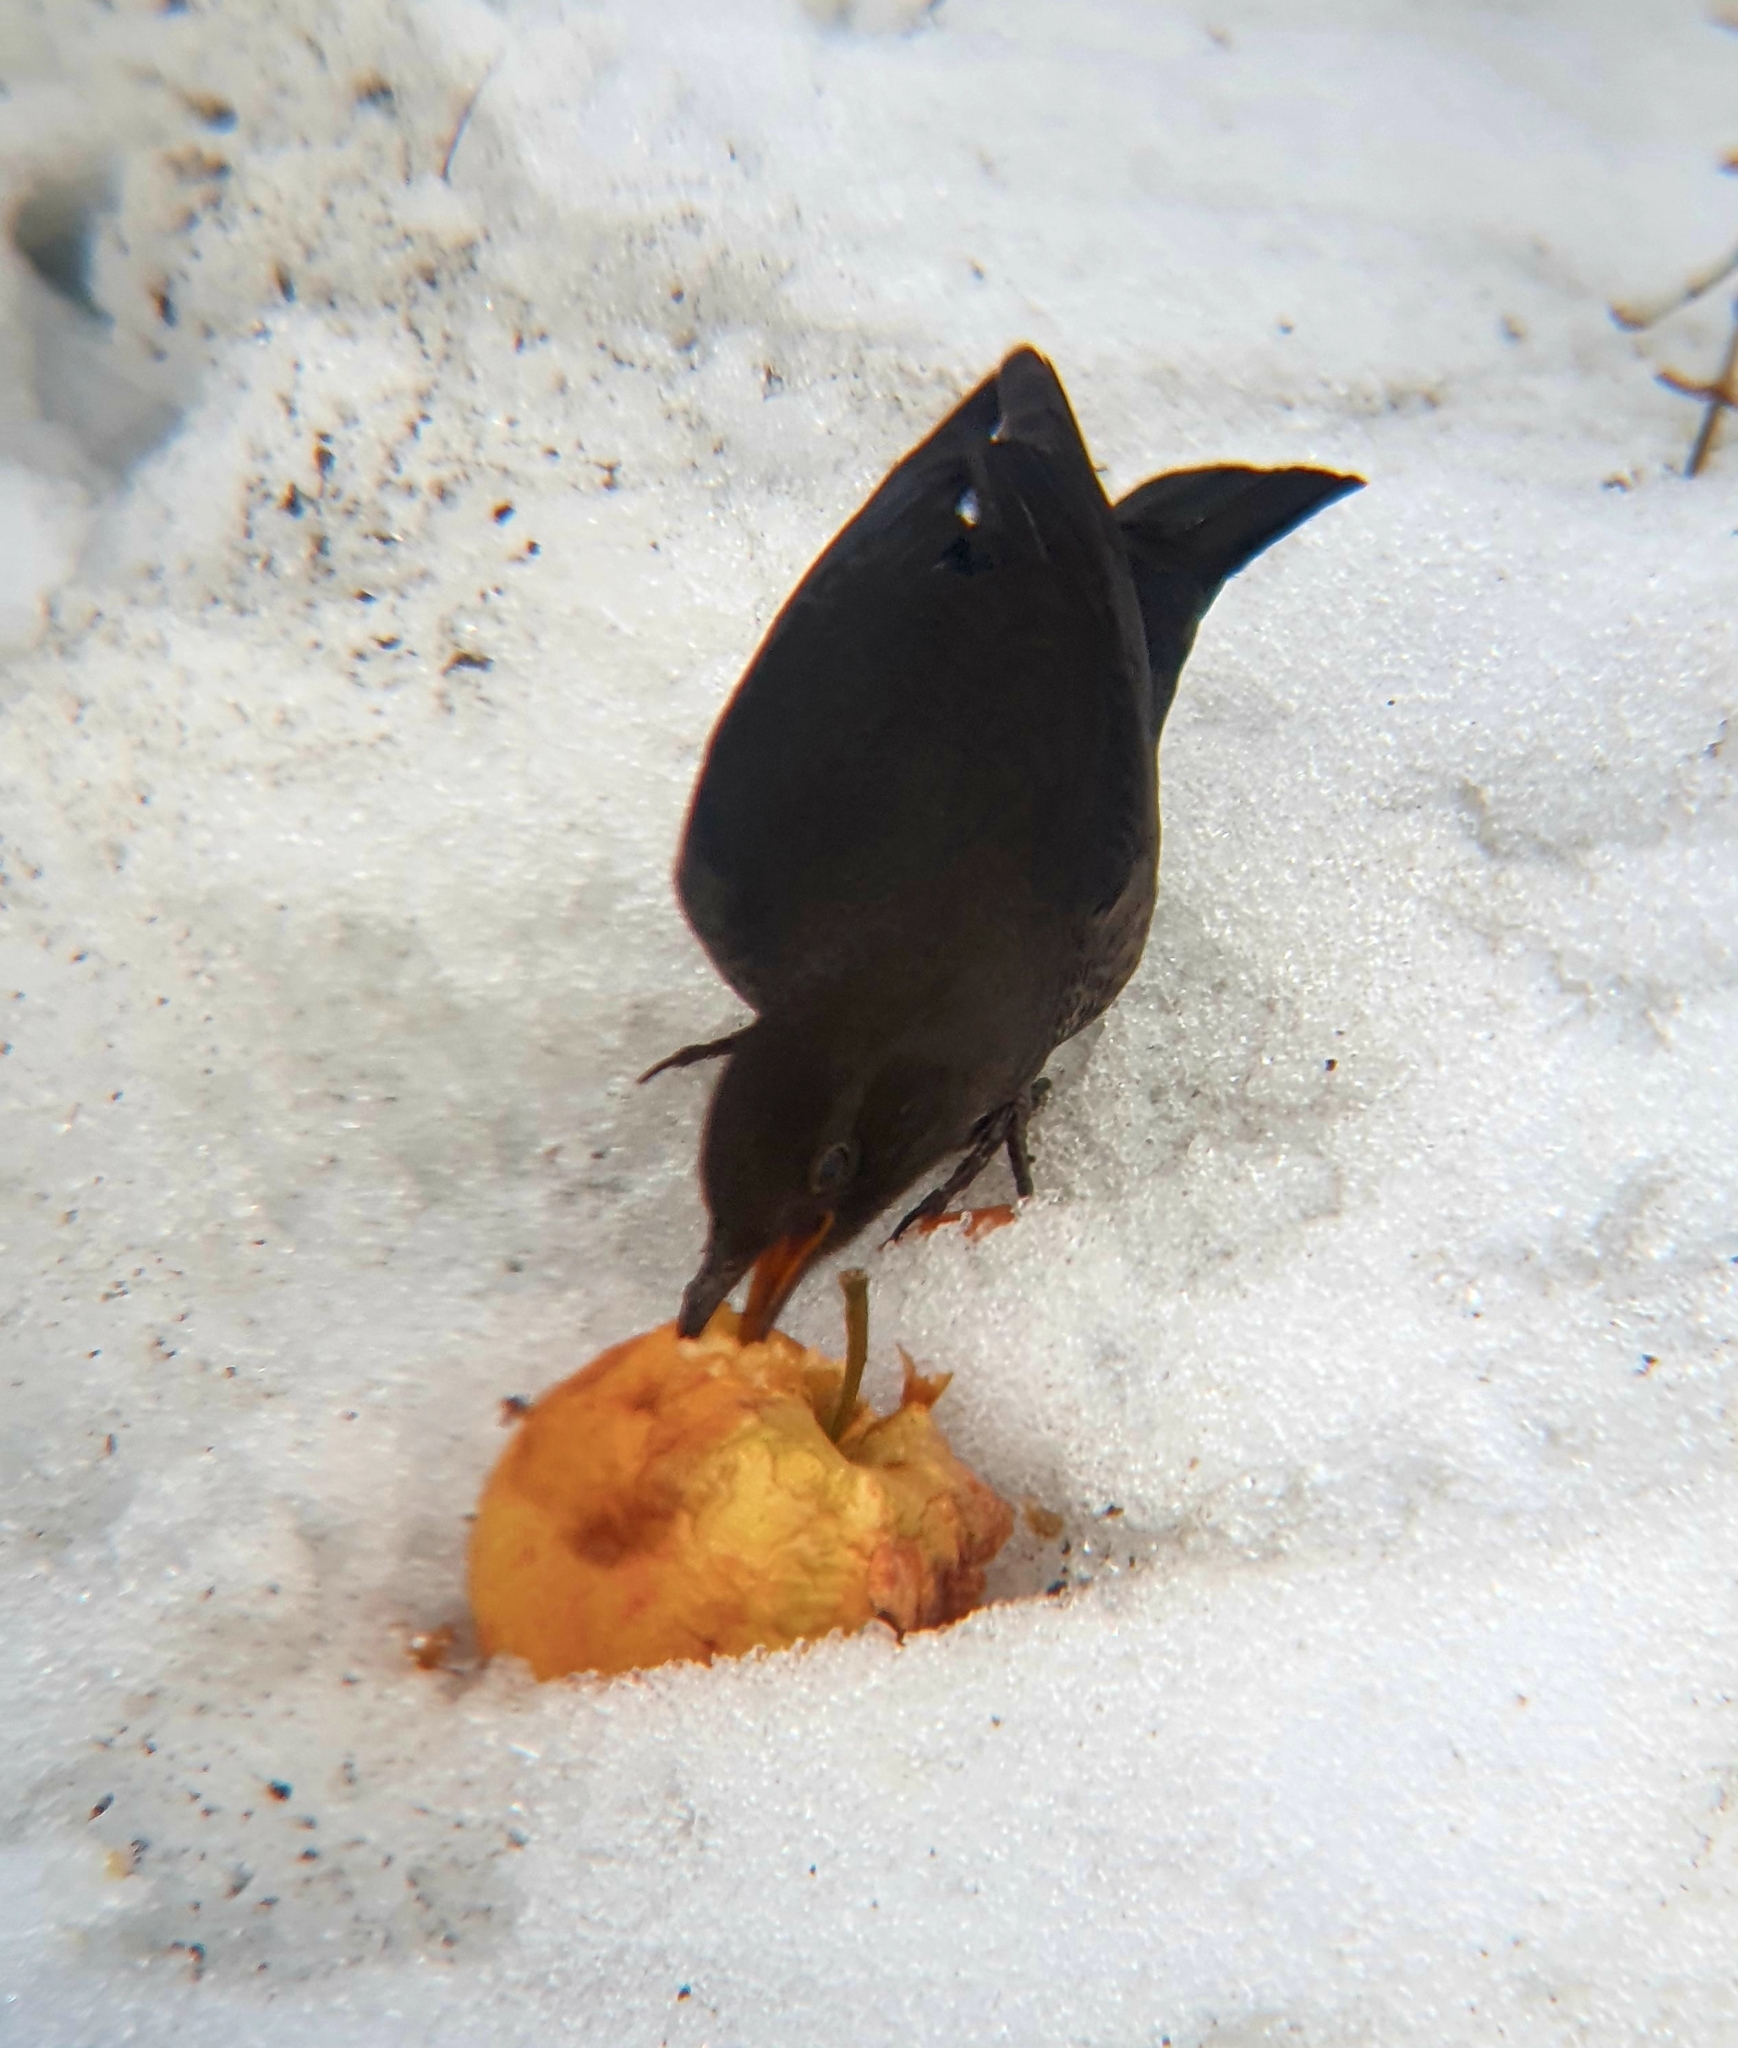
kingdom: Animalia
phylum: Chordata
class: Aves
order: Passeriformes
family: Turdidae
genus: Turdus
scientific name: Turdus merula
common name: Common blackbird
